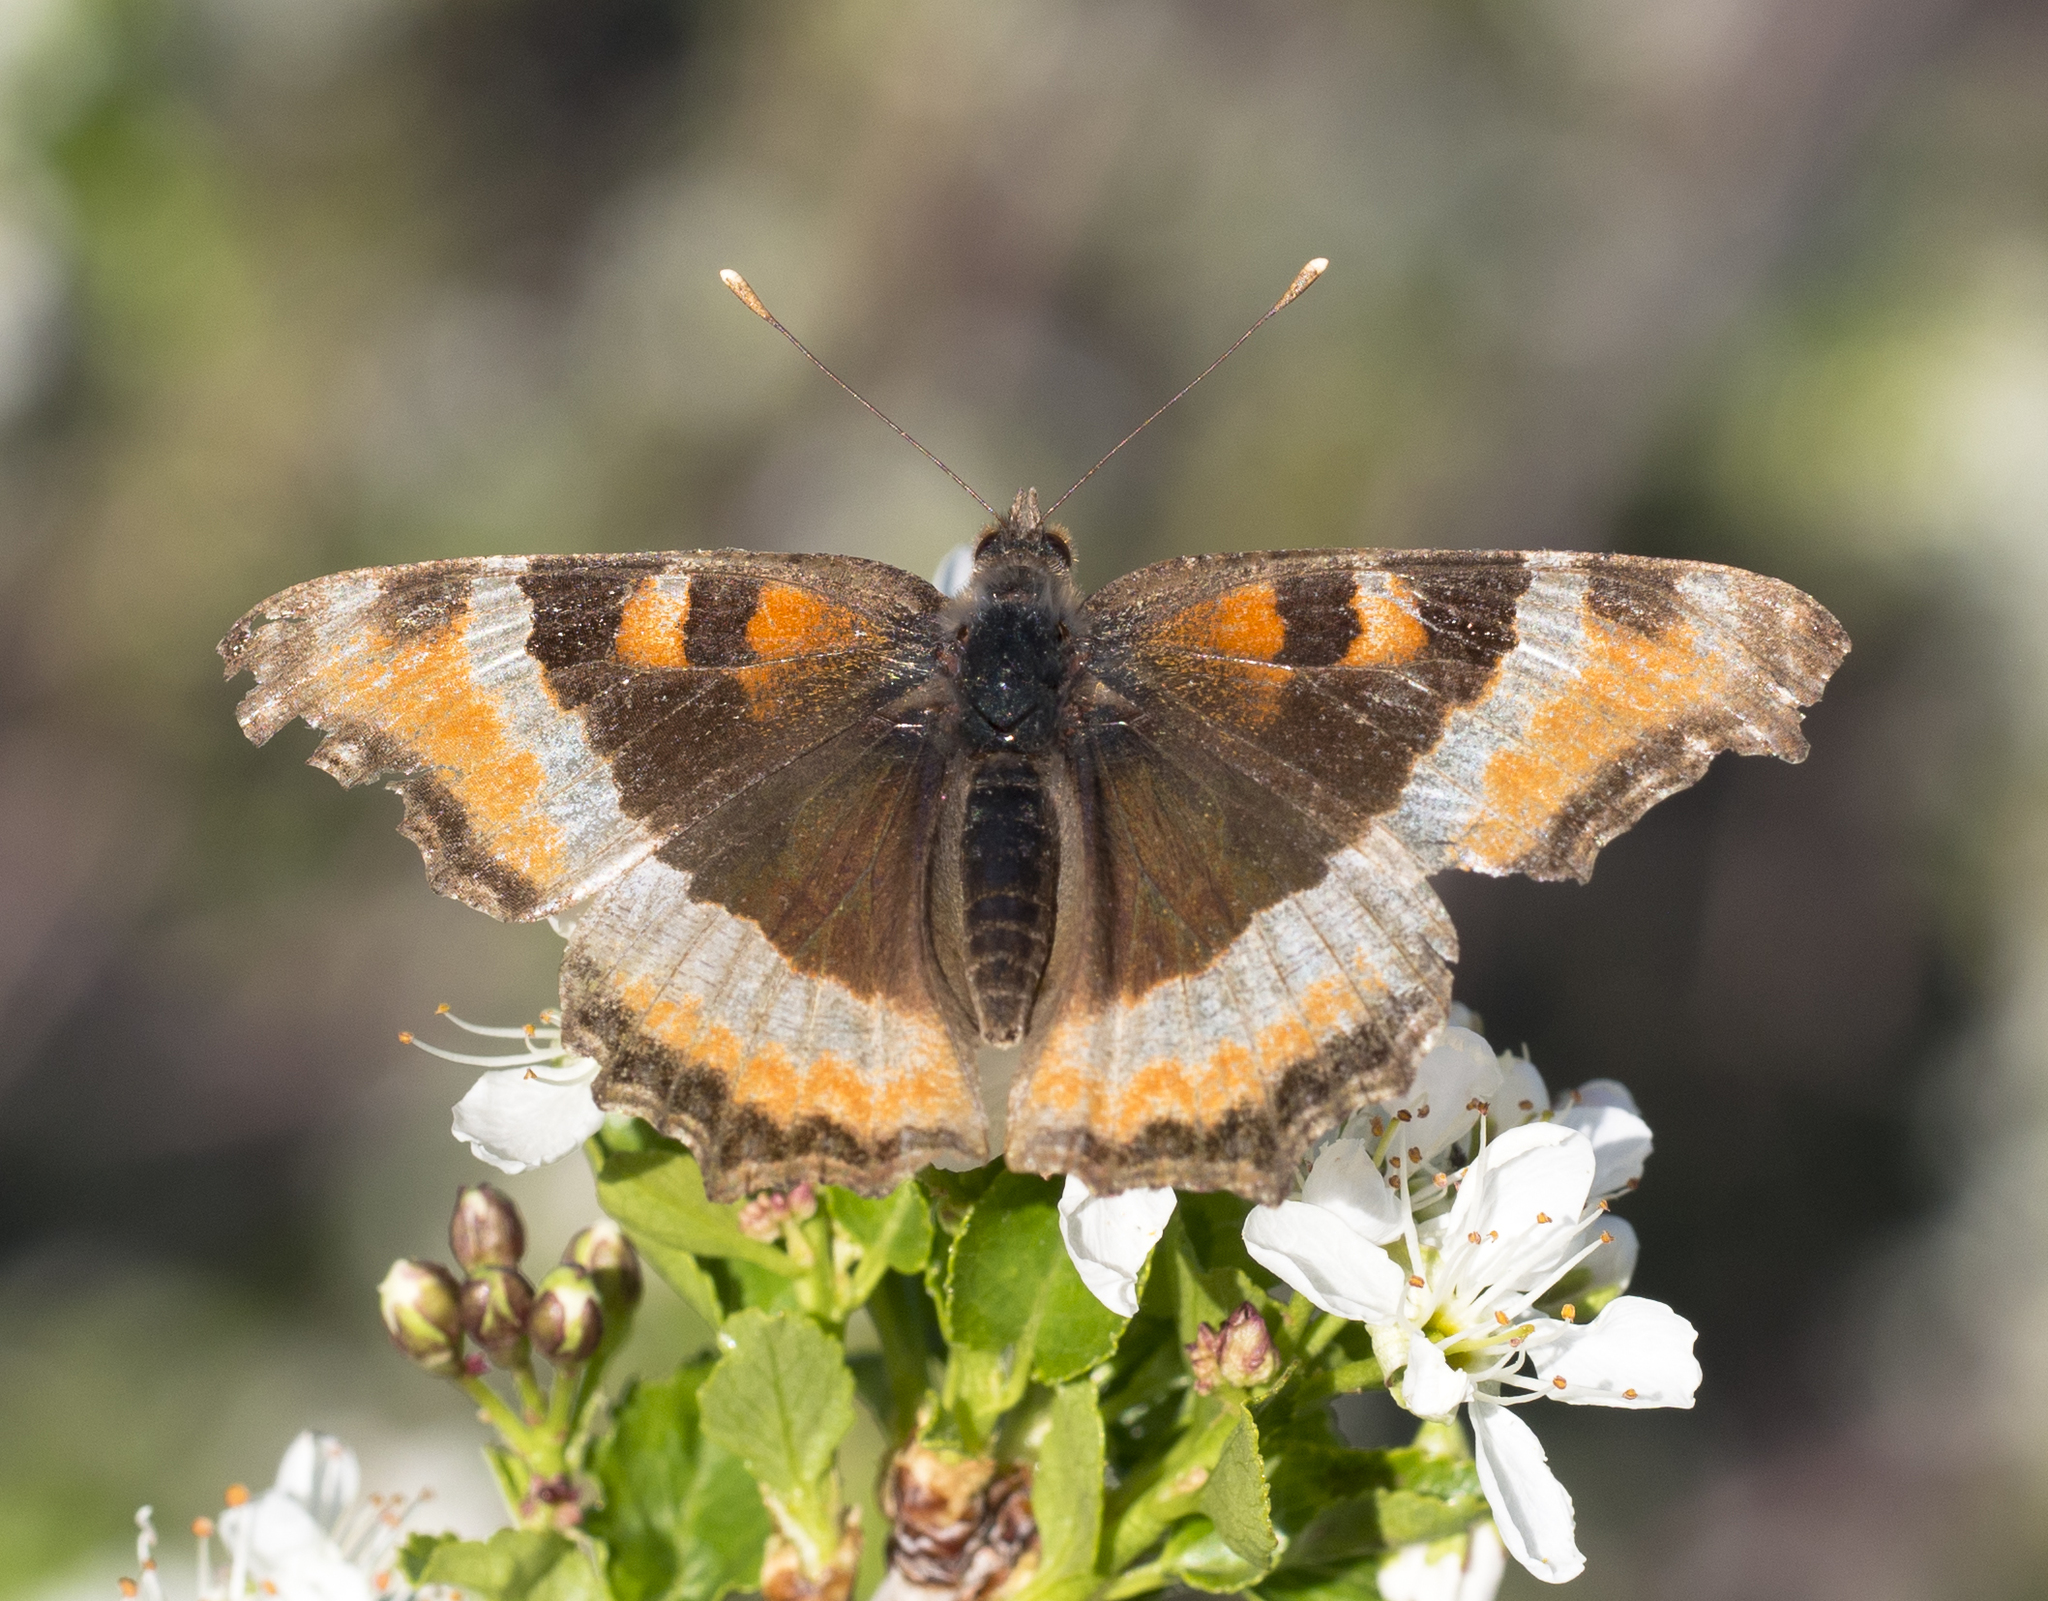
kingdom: Animalia
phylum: Arthropoda
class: Insecta
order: Lepidoptera
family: Nymphalidae
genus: Aglais
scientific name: Aglais milberti
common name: Milbert's tortoiseshell
